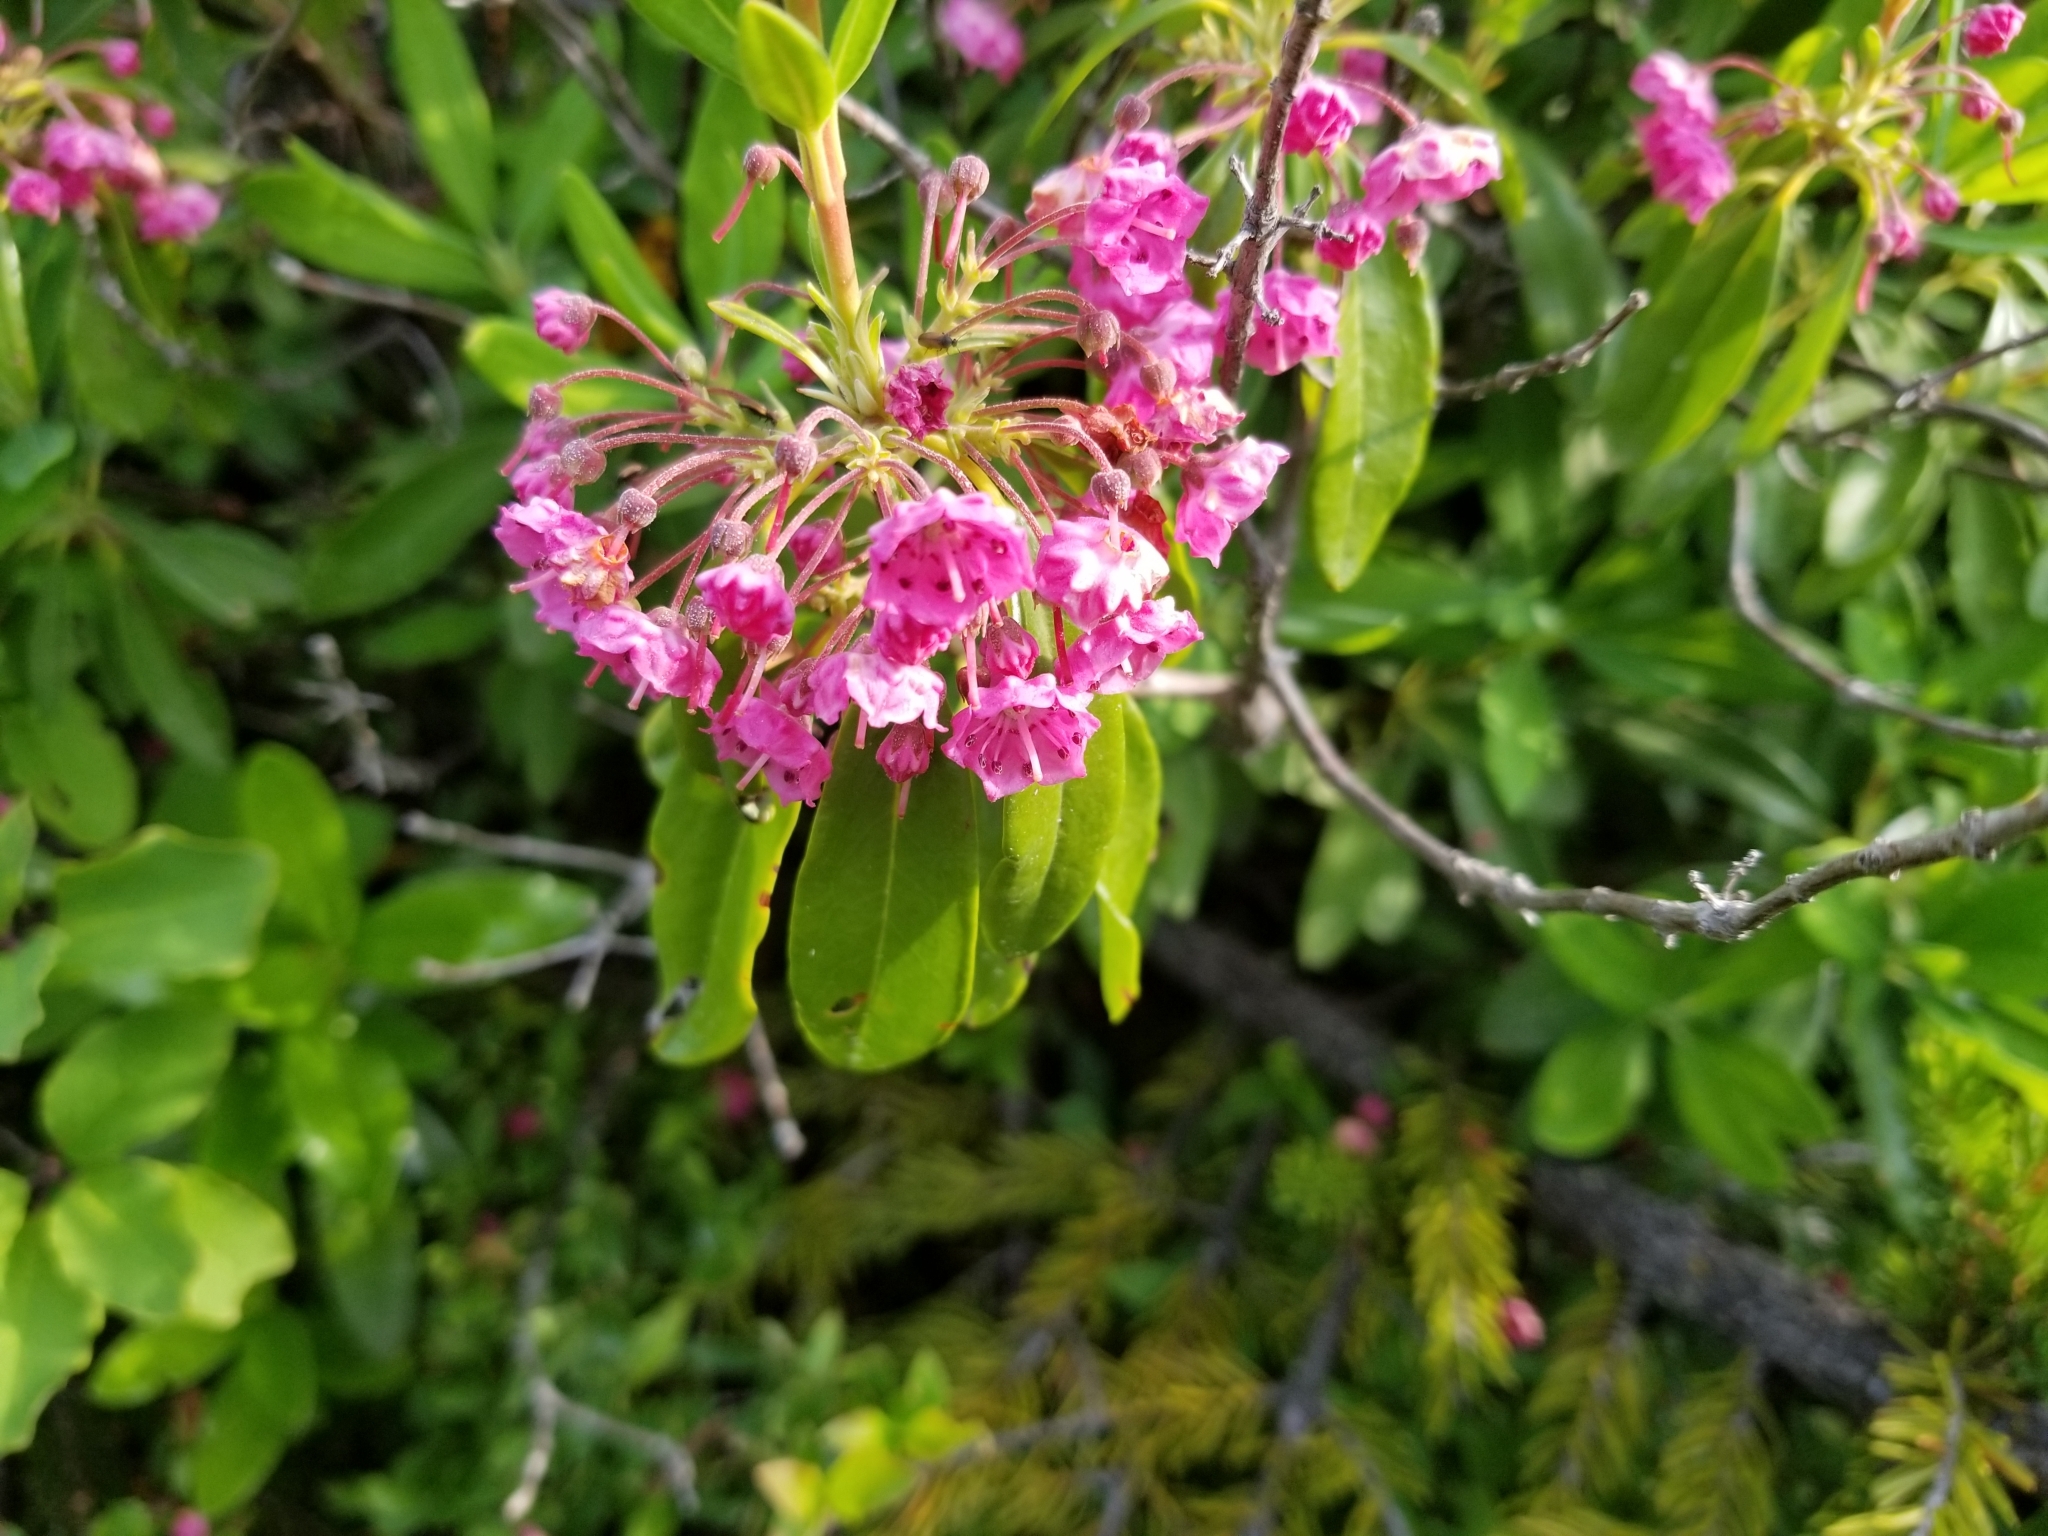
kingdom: Plantae
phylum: Tracheophyta
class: Magnoliopsida
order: Ericales
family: Ericaceae
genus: Kalmia
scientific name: Kalmia angustifolia
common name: Sheep-laurel
